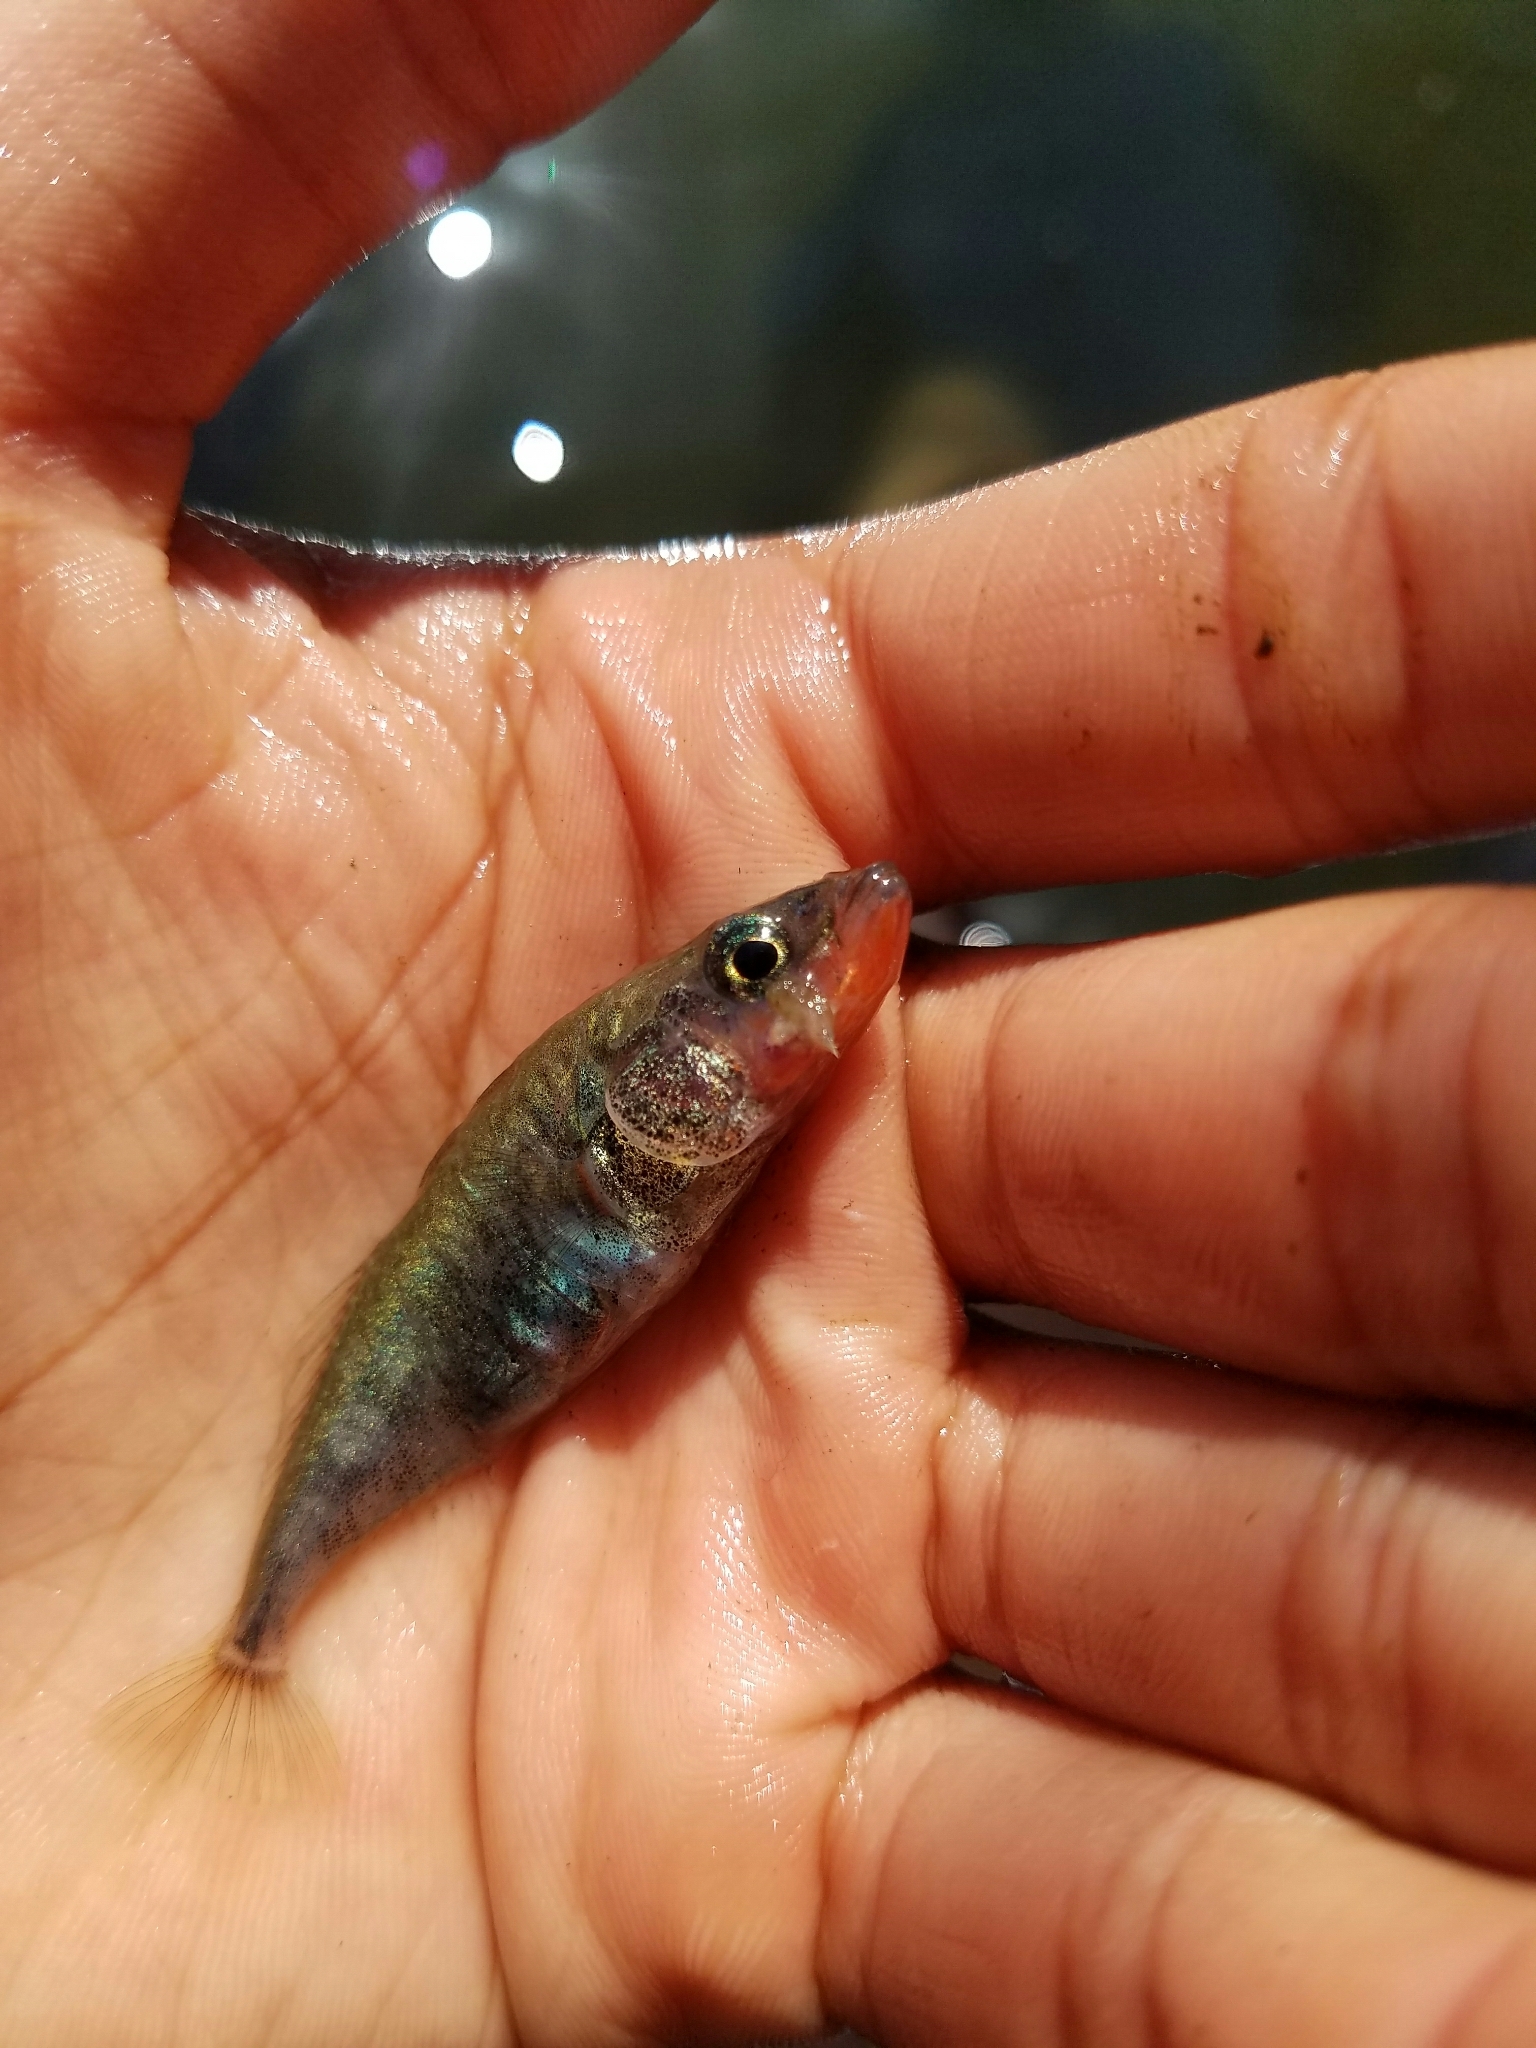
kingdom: Animalia
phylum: Chordata
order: Gasterosteiformes
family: Gasterosteidae
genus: Gasterosteus
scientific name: Gasterosteus aculeatus
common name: Three-spined stickleback
